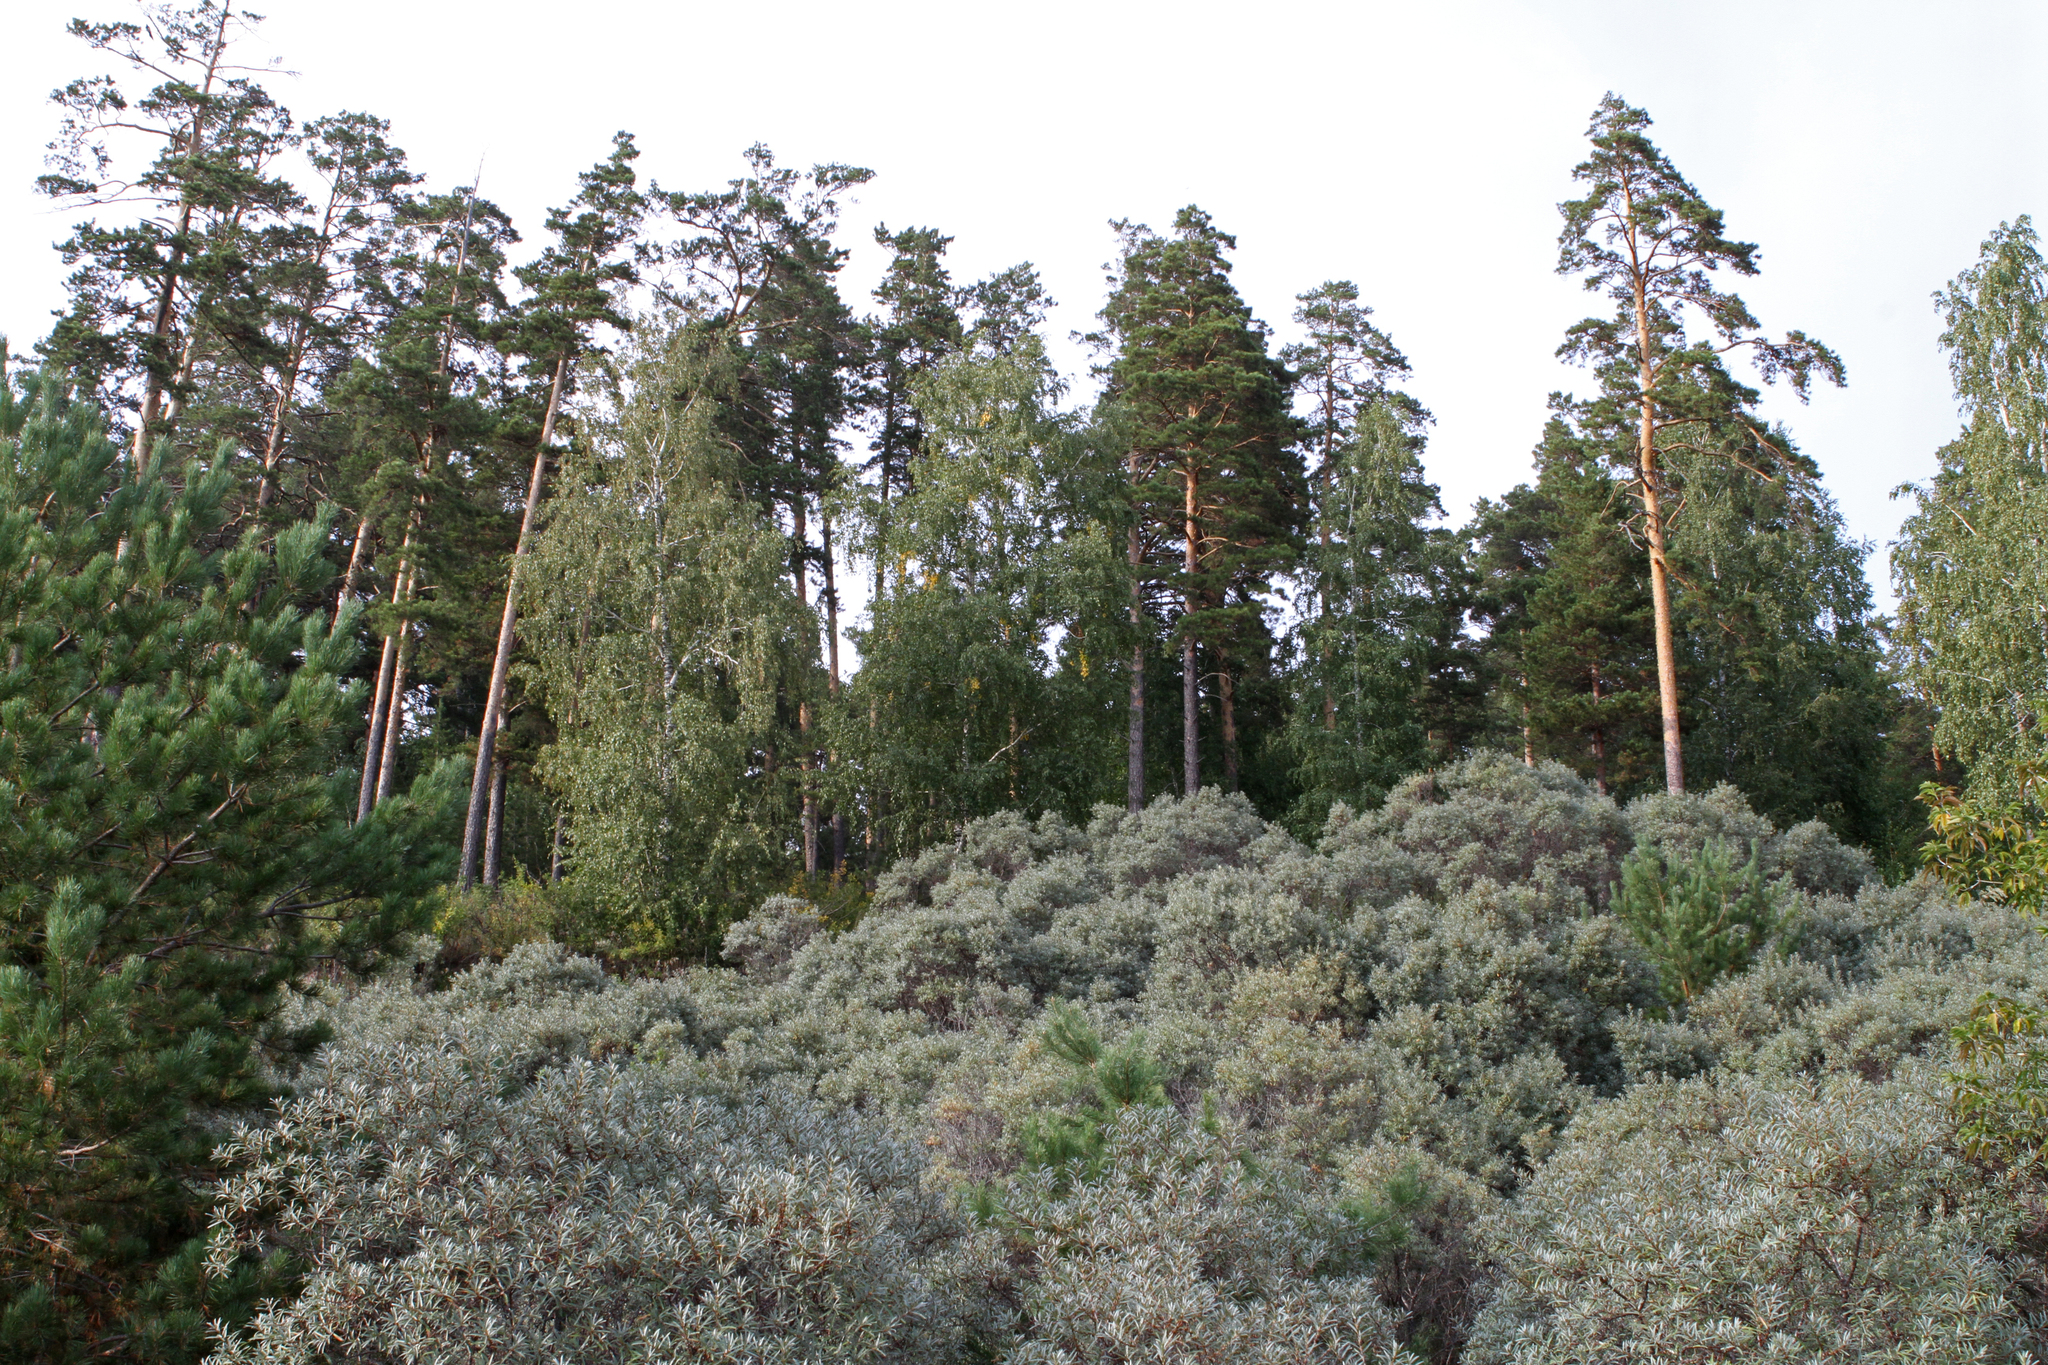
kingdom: Plantae
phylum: Tracheophyta
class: Pinopsida
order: Pinales
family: Pinaceae
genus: Pinus
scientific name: Pinus sylvestris
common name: Scots pine
